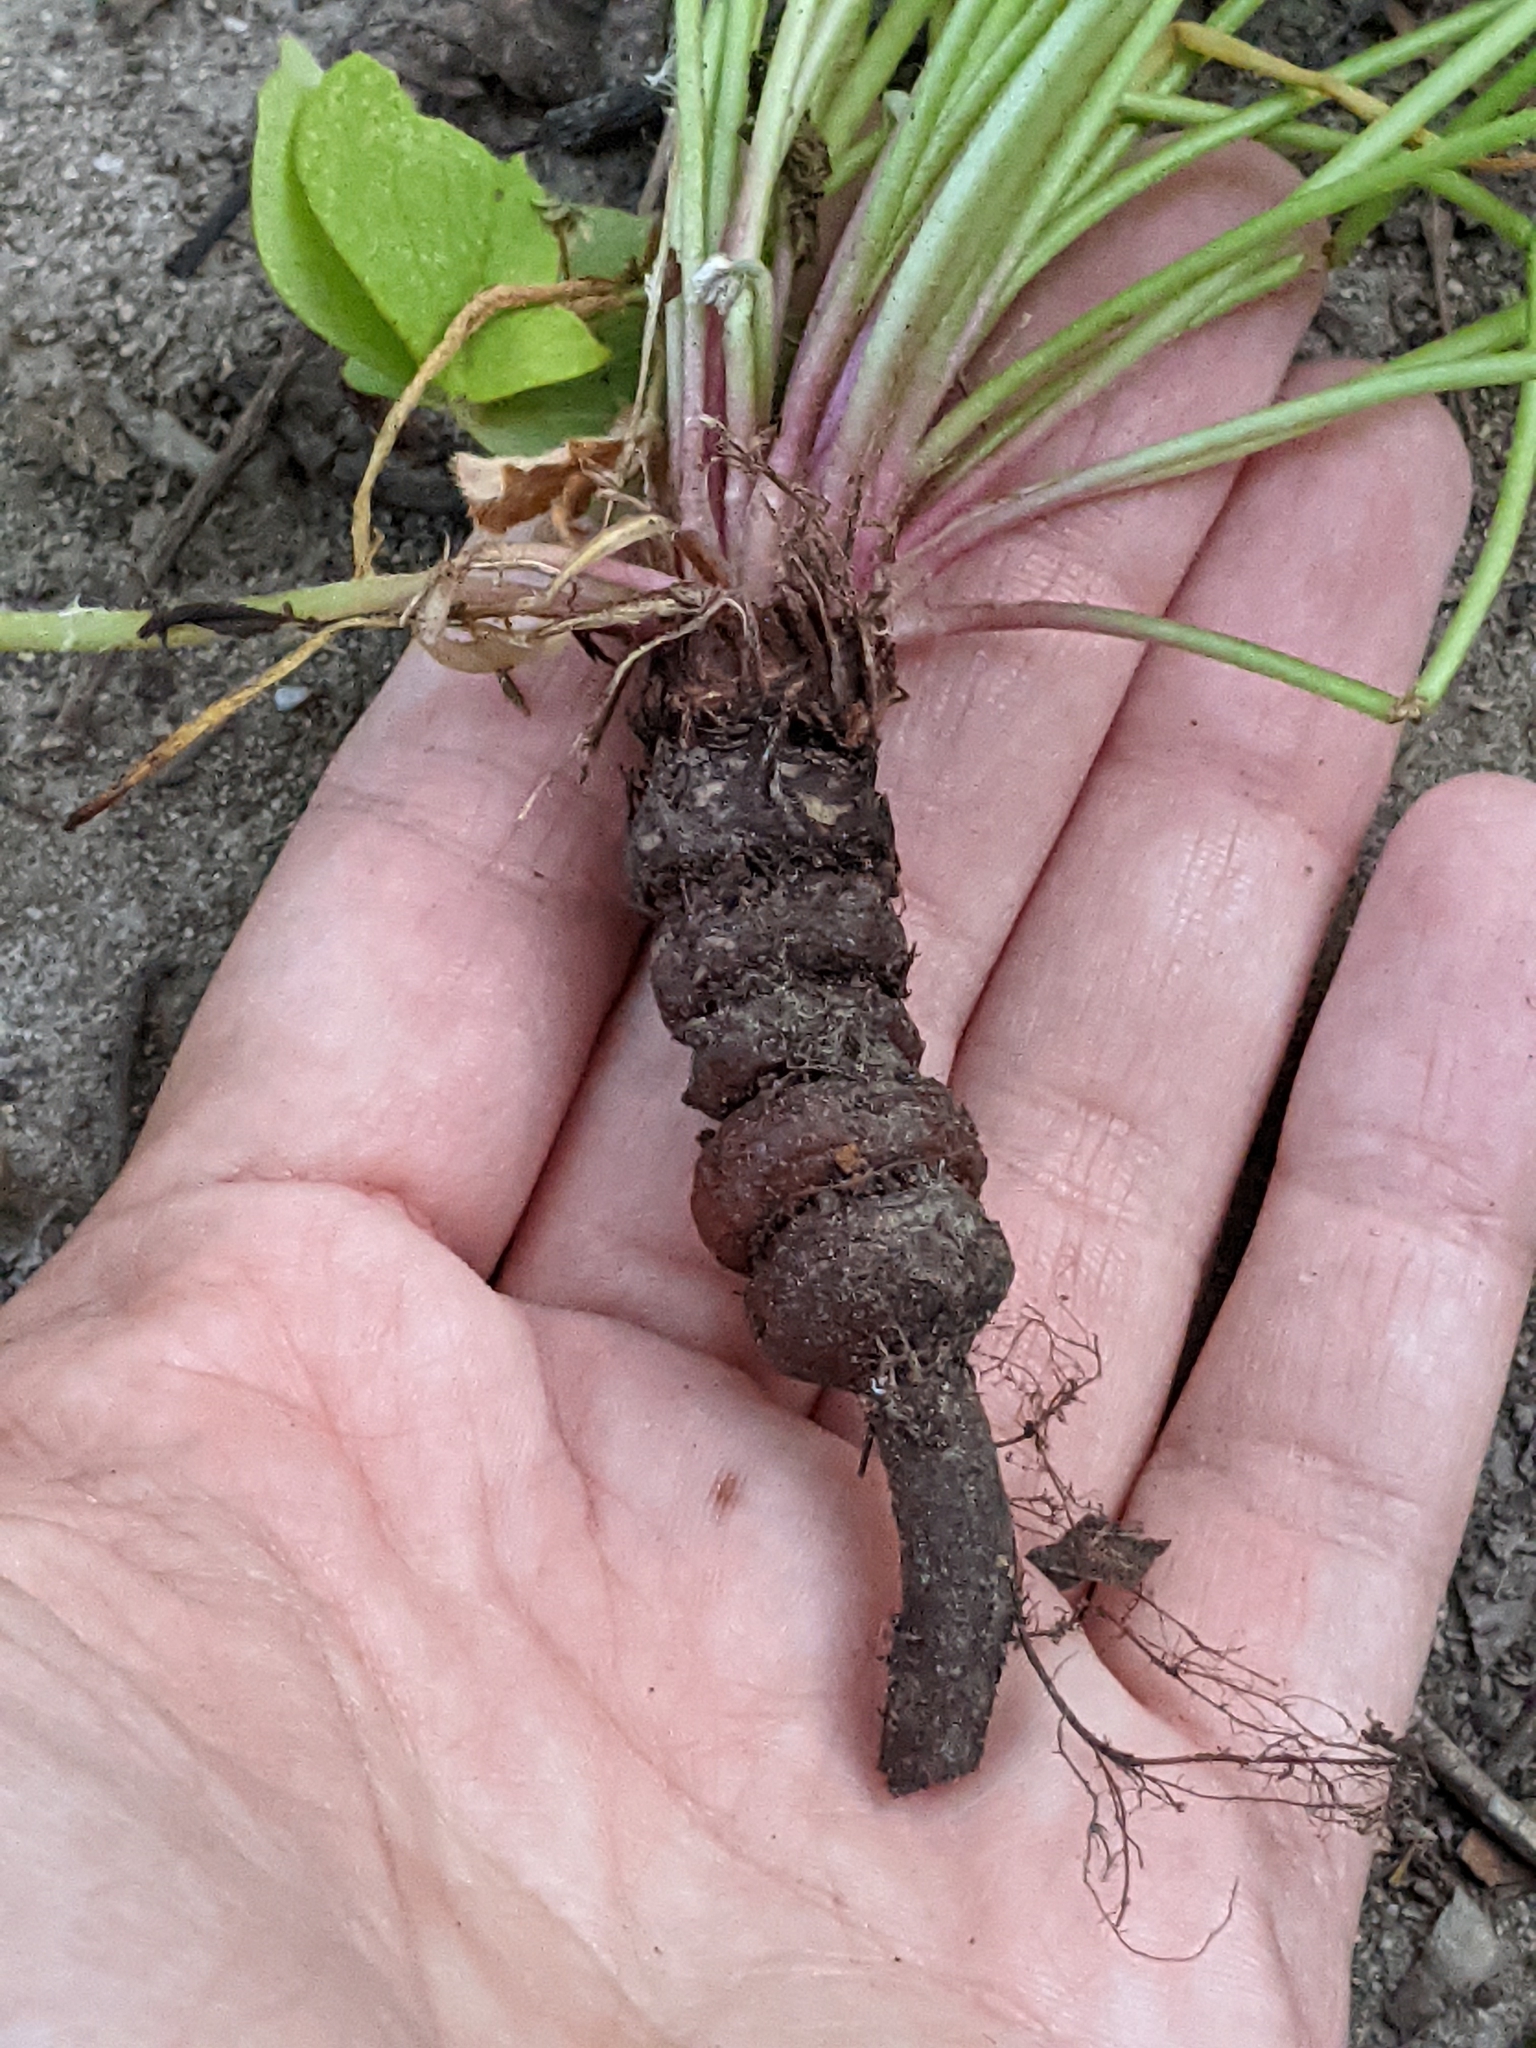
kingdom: Plantae
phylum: Tracheophyta
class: Magnoliopsida
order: Oxalidales
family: Oxalidaceae
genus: Oxalis
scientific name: Oxalis articulata
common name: Pink-sorrel
